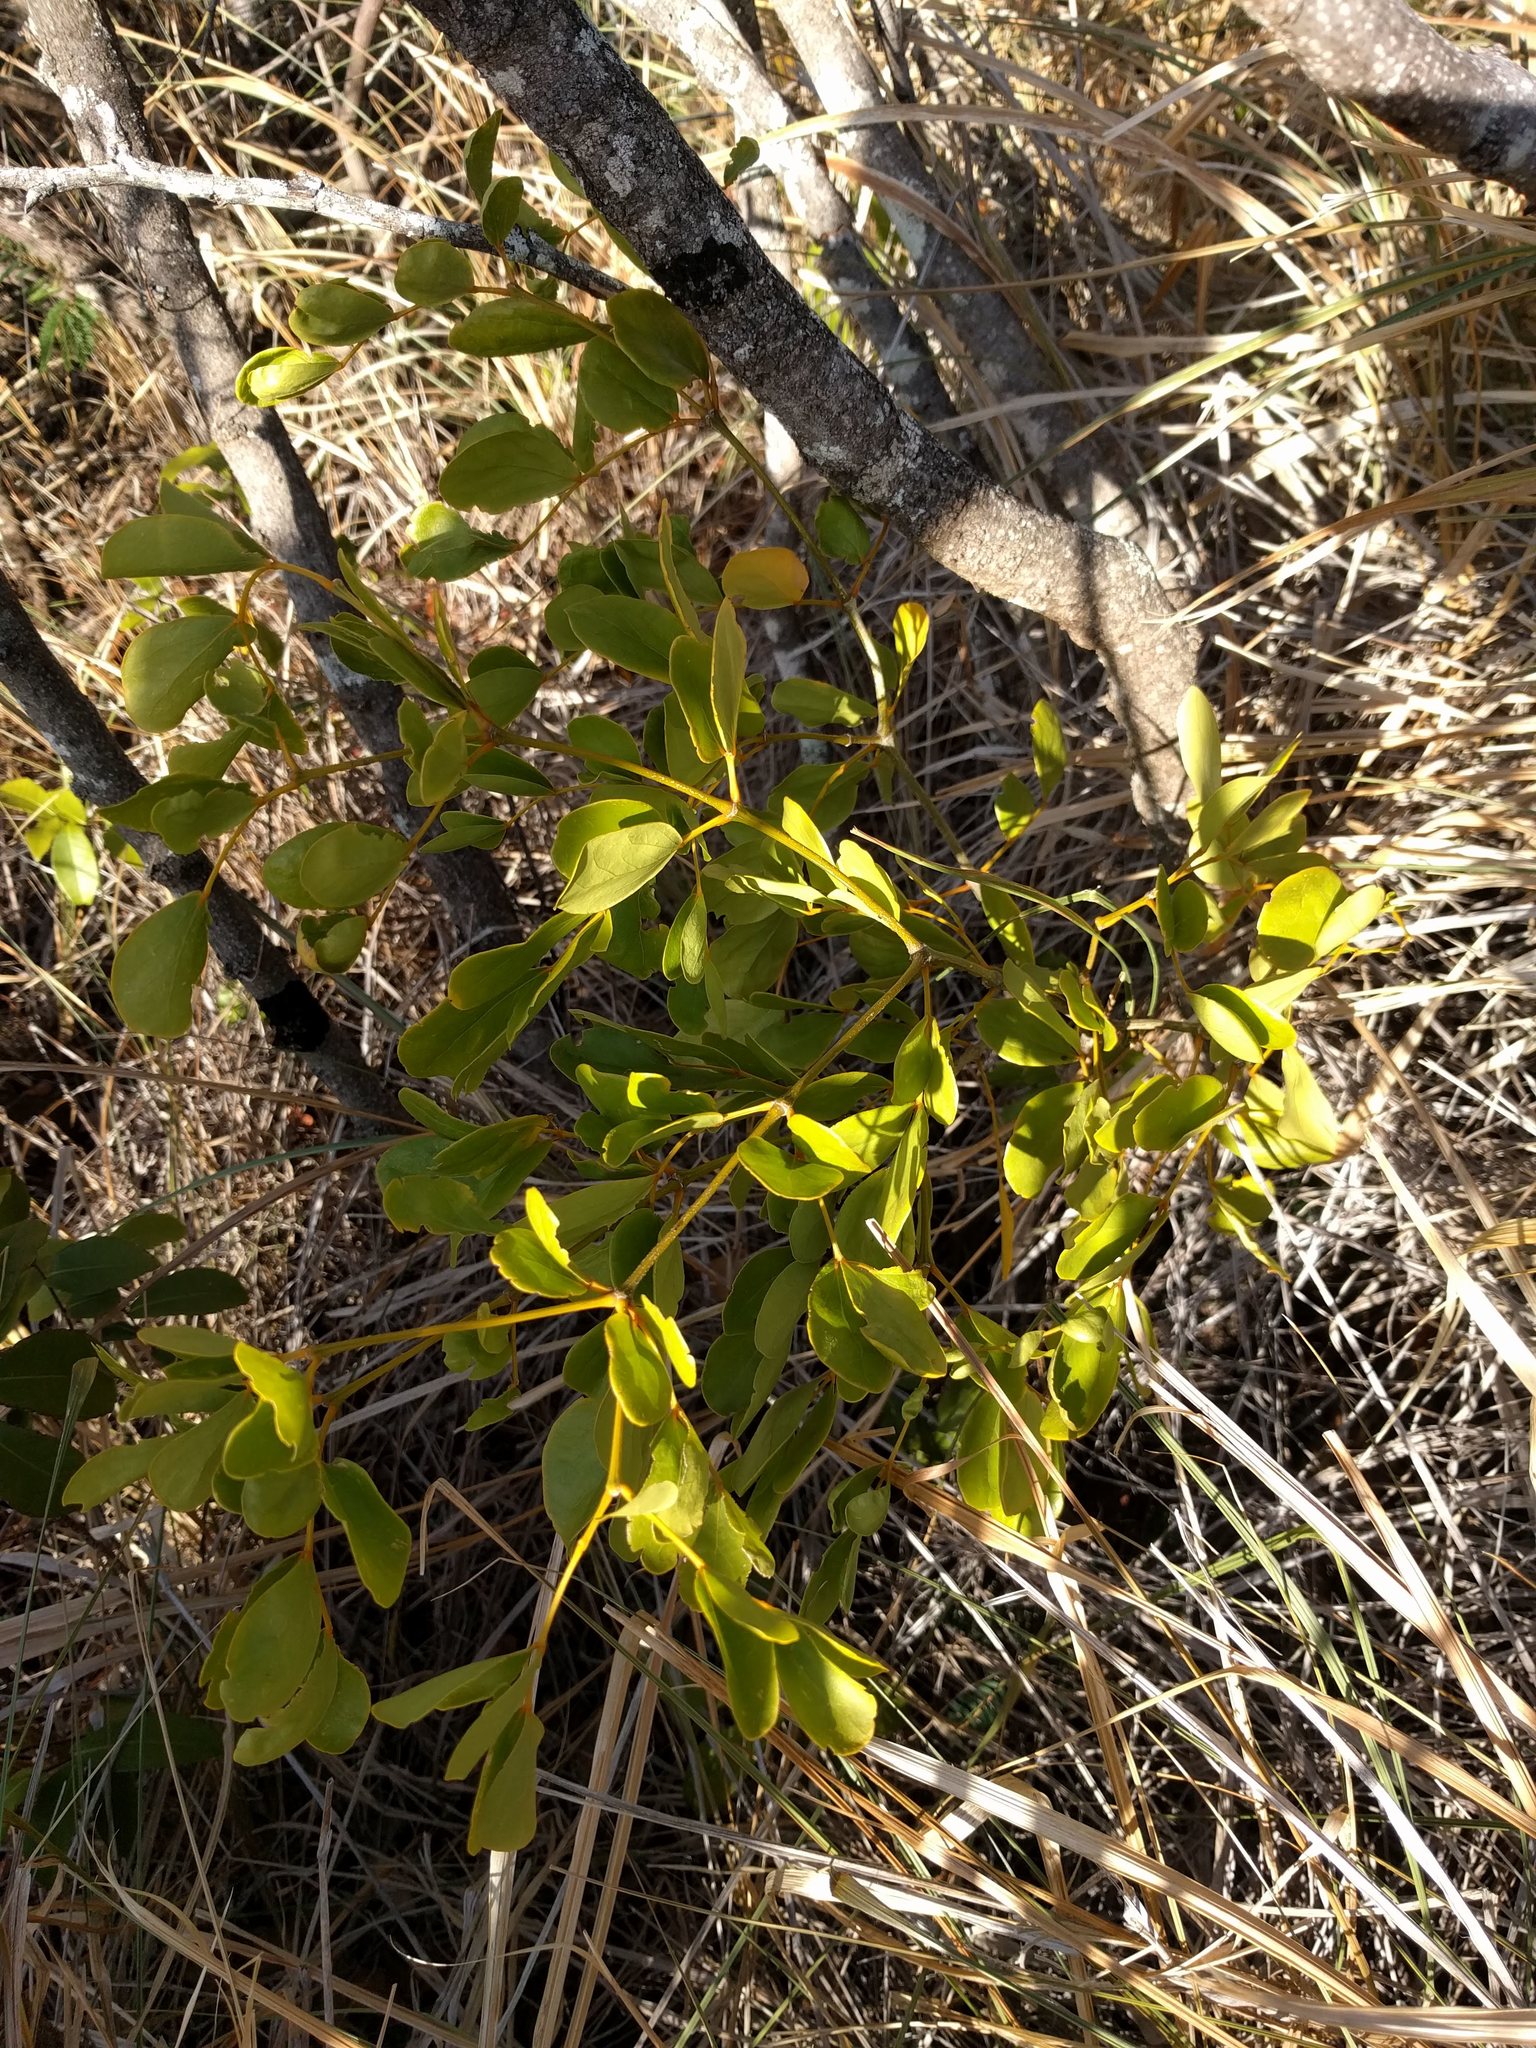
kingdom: Plantae
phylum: Tracheophyta
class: Magnoliopsida
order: Zygophyllales
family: Zygophyllaceae
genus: Guaiacum
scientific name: Guaiacum officinale
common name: Lignum vitae
